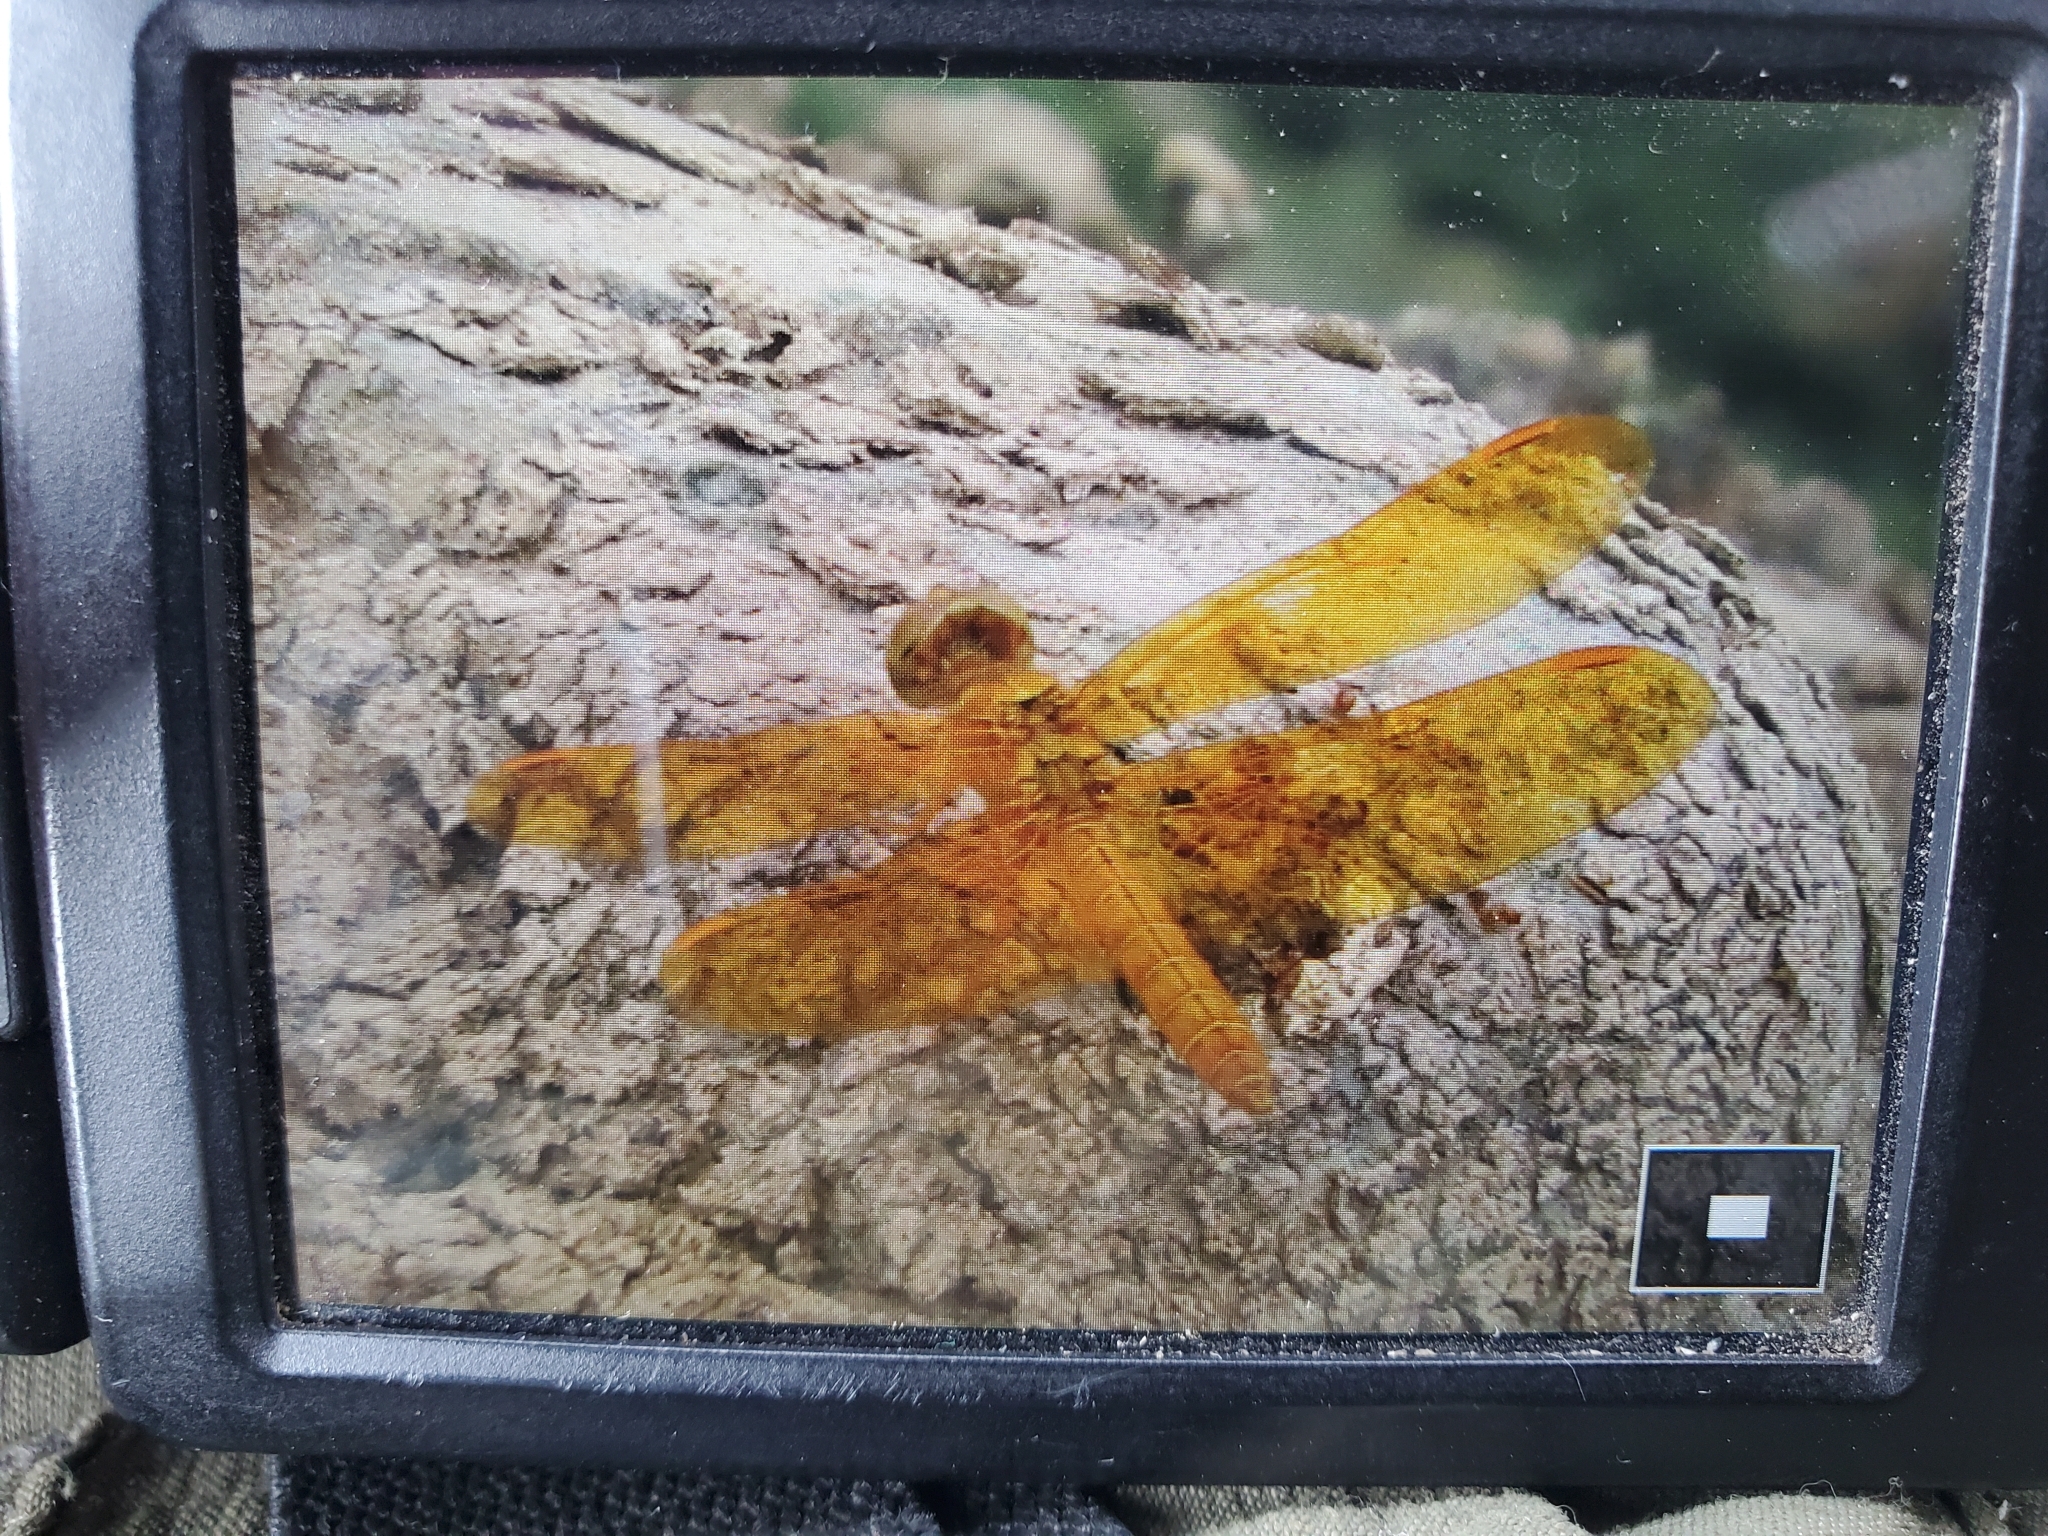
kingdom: Animalia
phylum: Arthropoda
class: Insecta
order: Odonata
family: Libellulidae
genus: Perithemis
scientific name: Perithemis intensa
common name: Mexican amberwing
